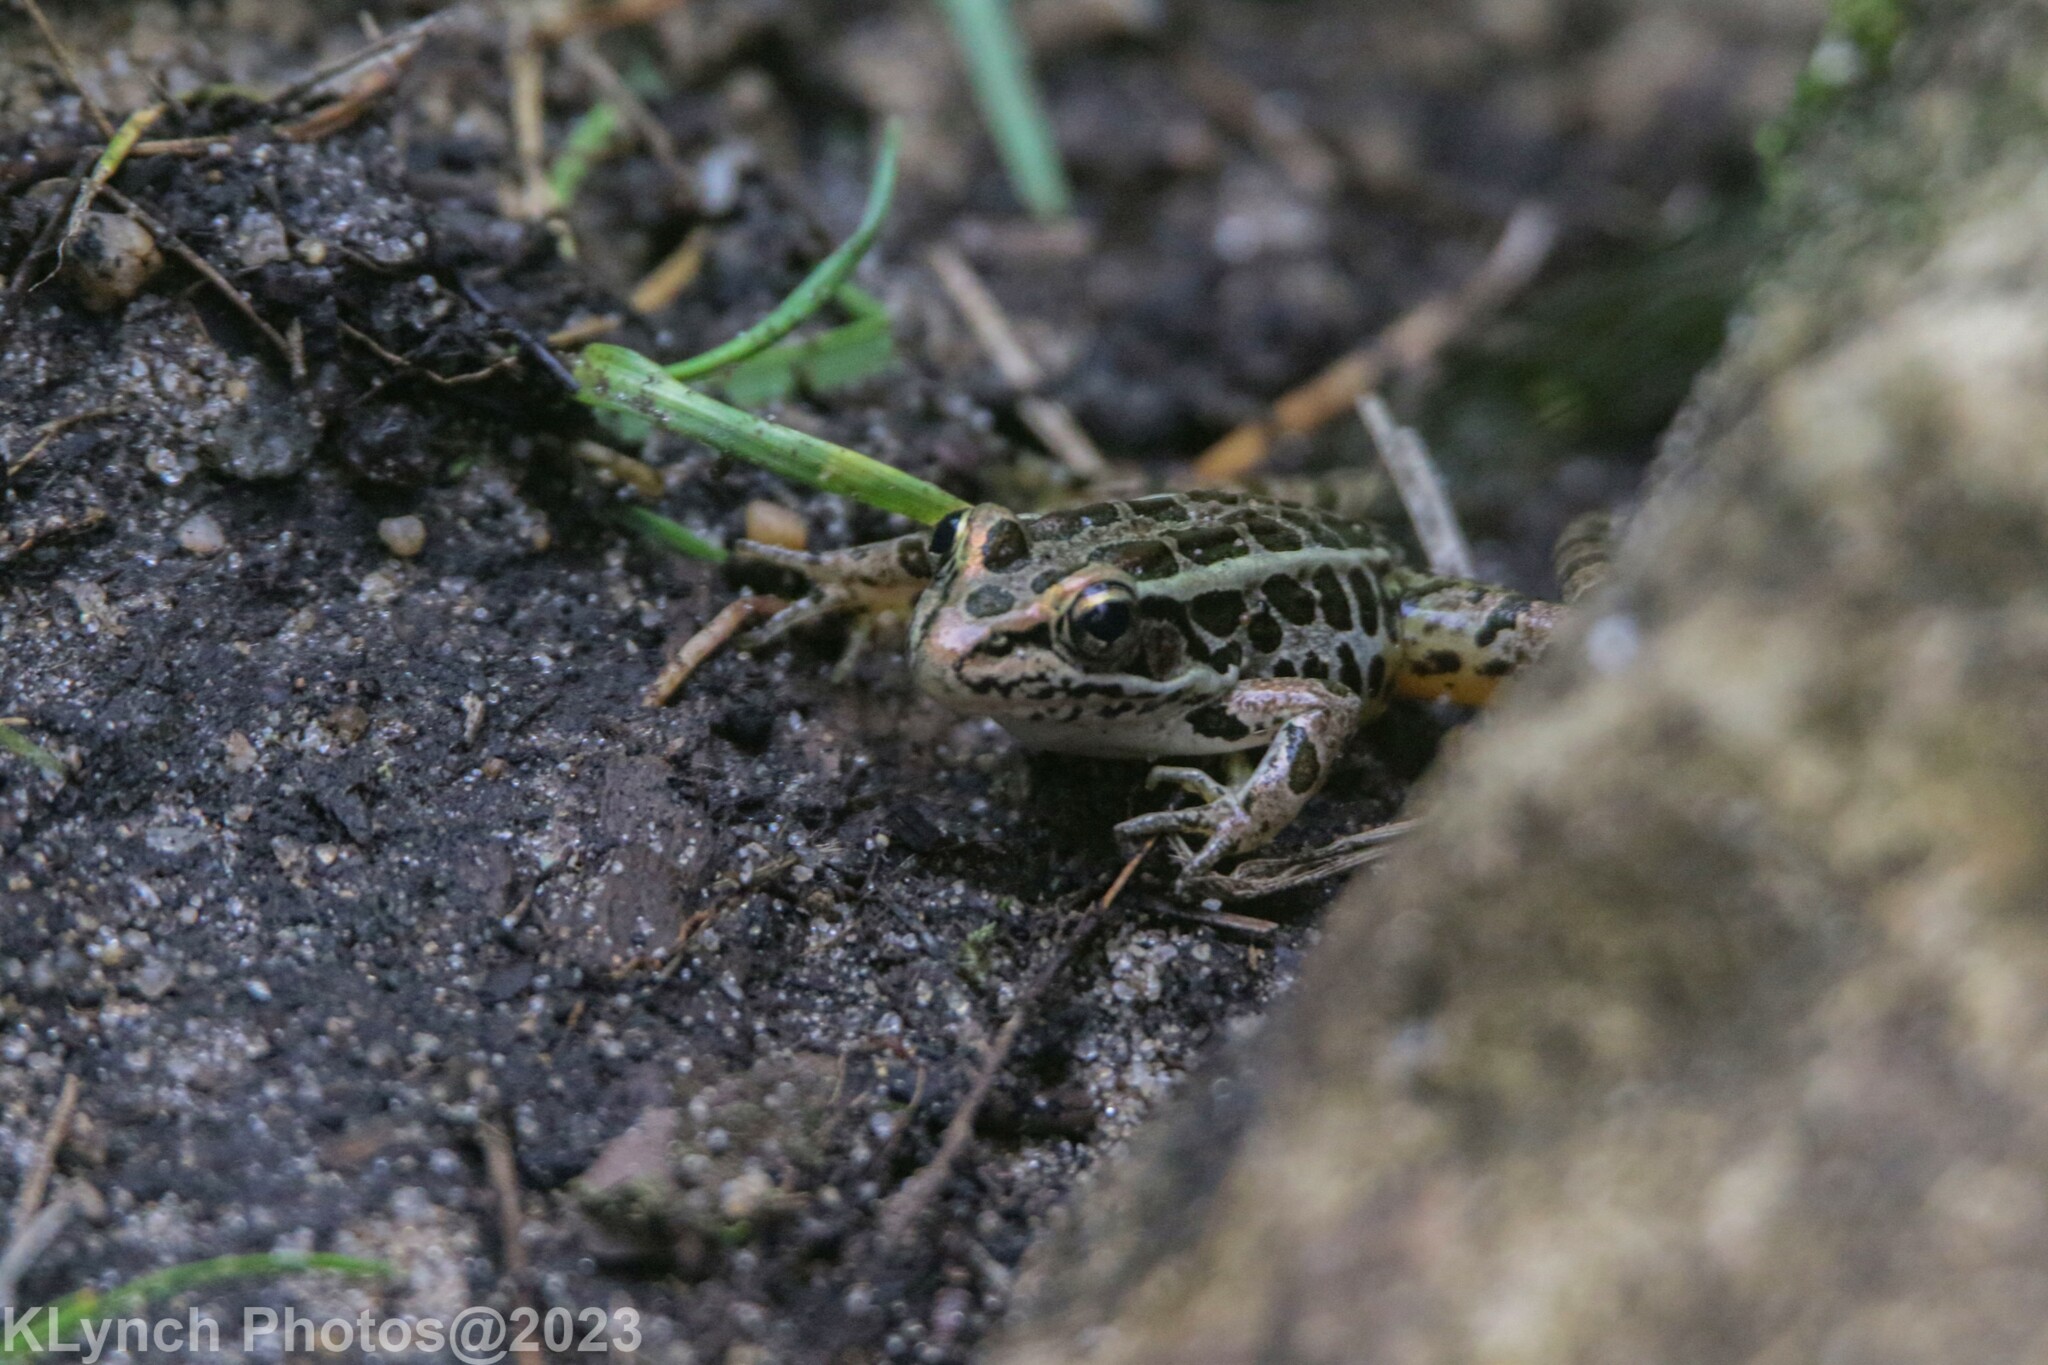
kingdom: Animalia
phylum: Chordata
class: Amphibia
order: Anura
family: Ranidae
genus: Lithobates
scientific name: Lithobates palustris
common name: Pickerel frog
